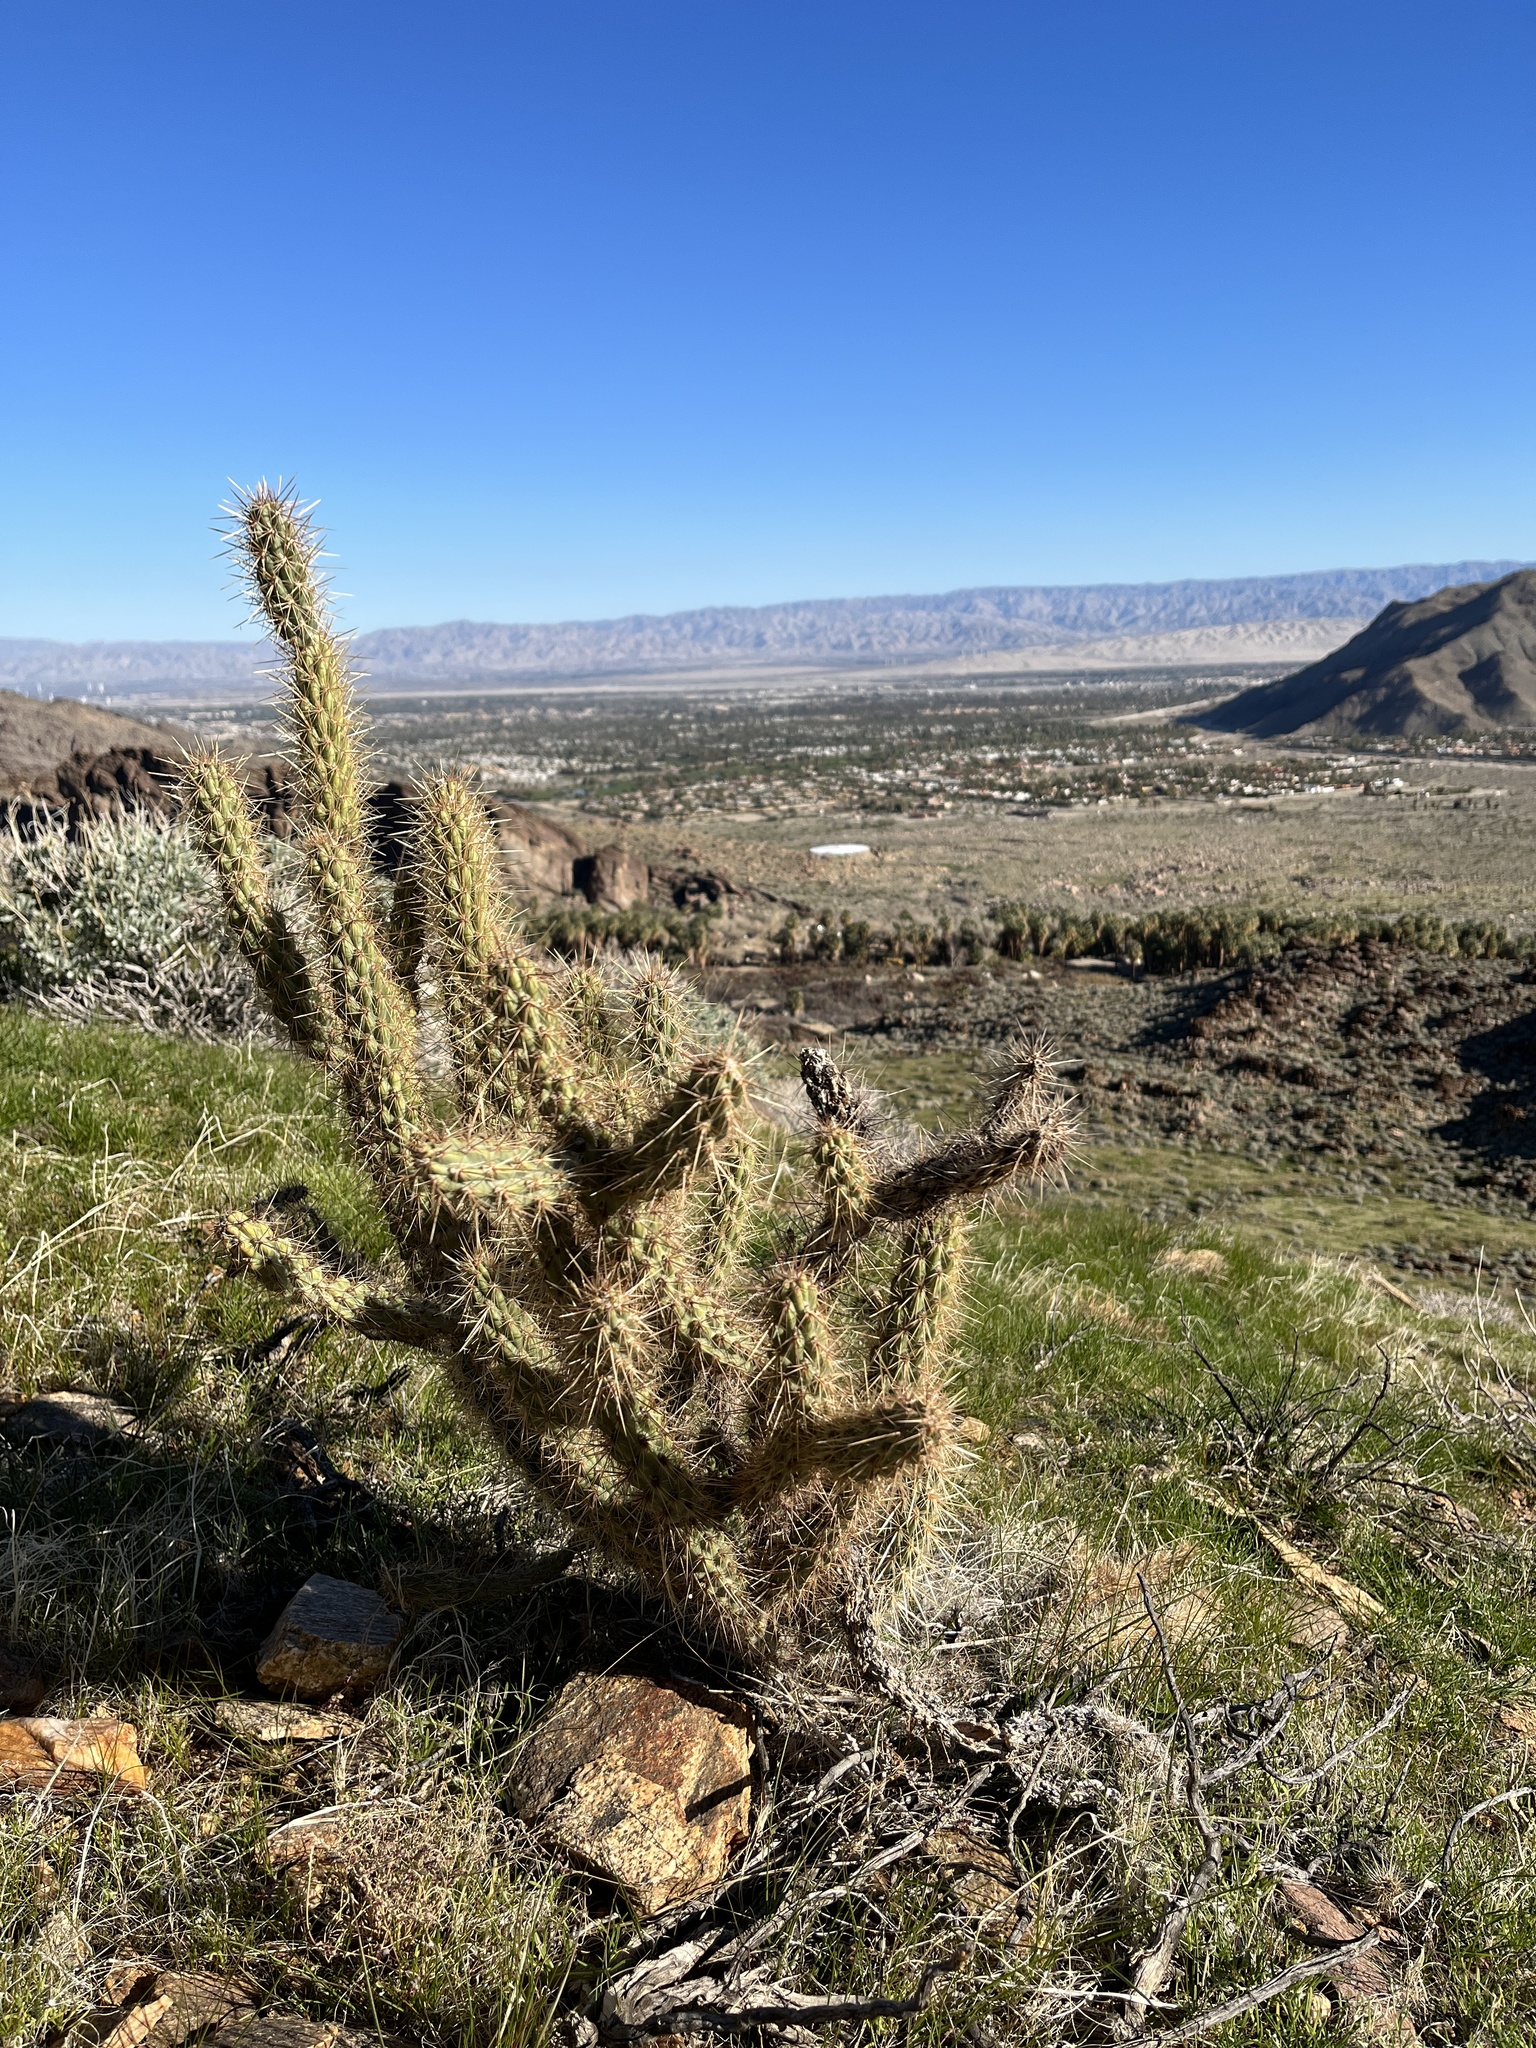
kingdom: Plantae
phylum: Tracheophyta
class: Magnoliopsida
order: Caryophyllales
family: Cactaceae
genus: Cylindropuntia
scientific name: Cylindropuntia ganderi
